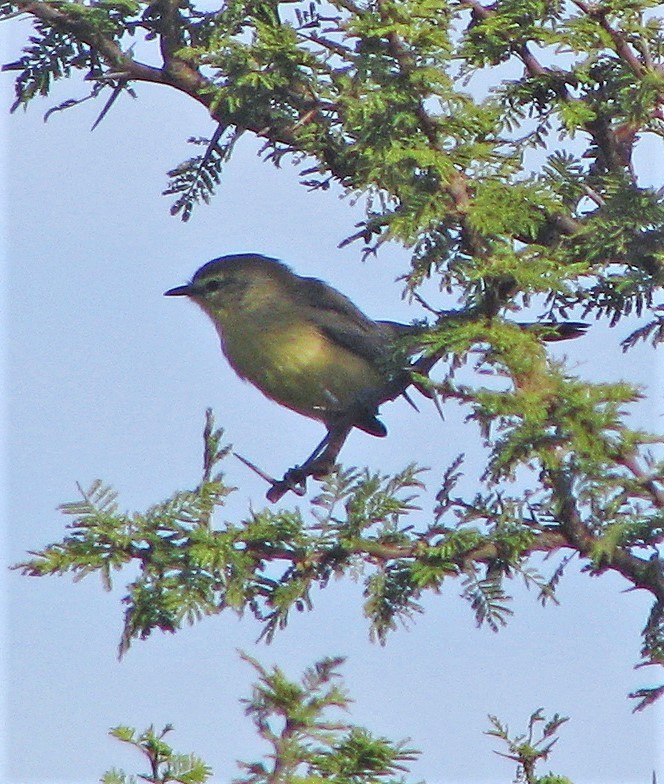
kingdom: Animalia
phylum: Chordata
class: Aves
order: Passeriformes
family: Tyrannidae
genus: Stigmatura
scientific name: Stigmatura budytoides
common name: Greater wagtail-tyrant
